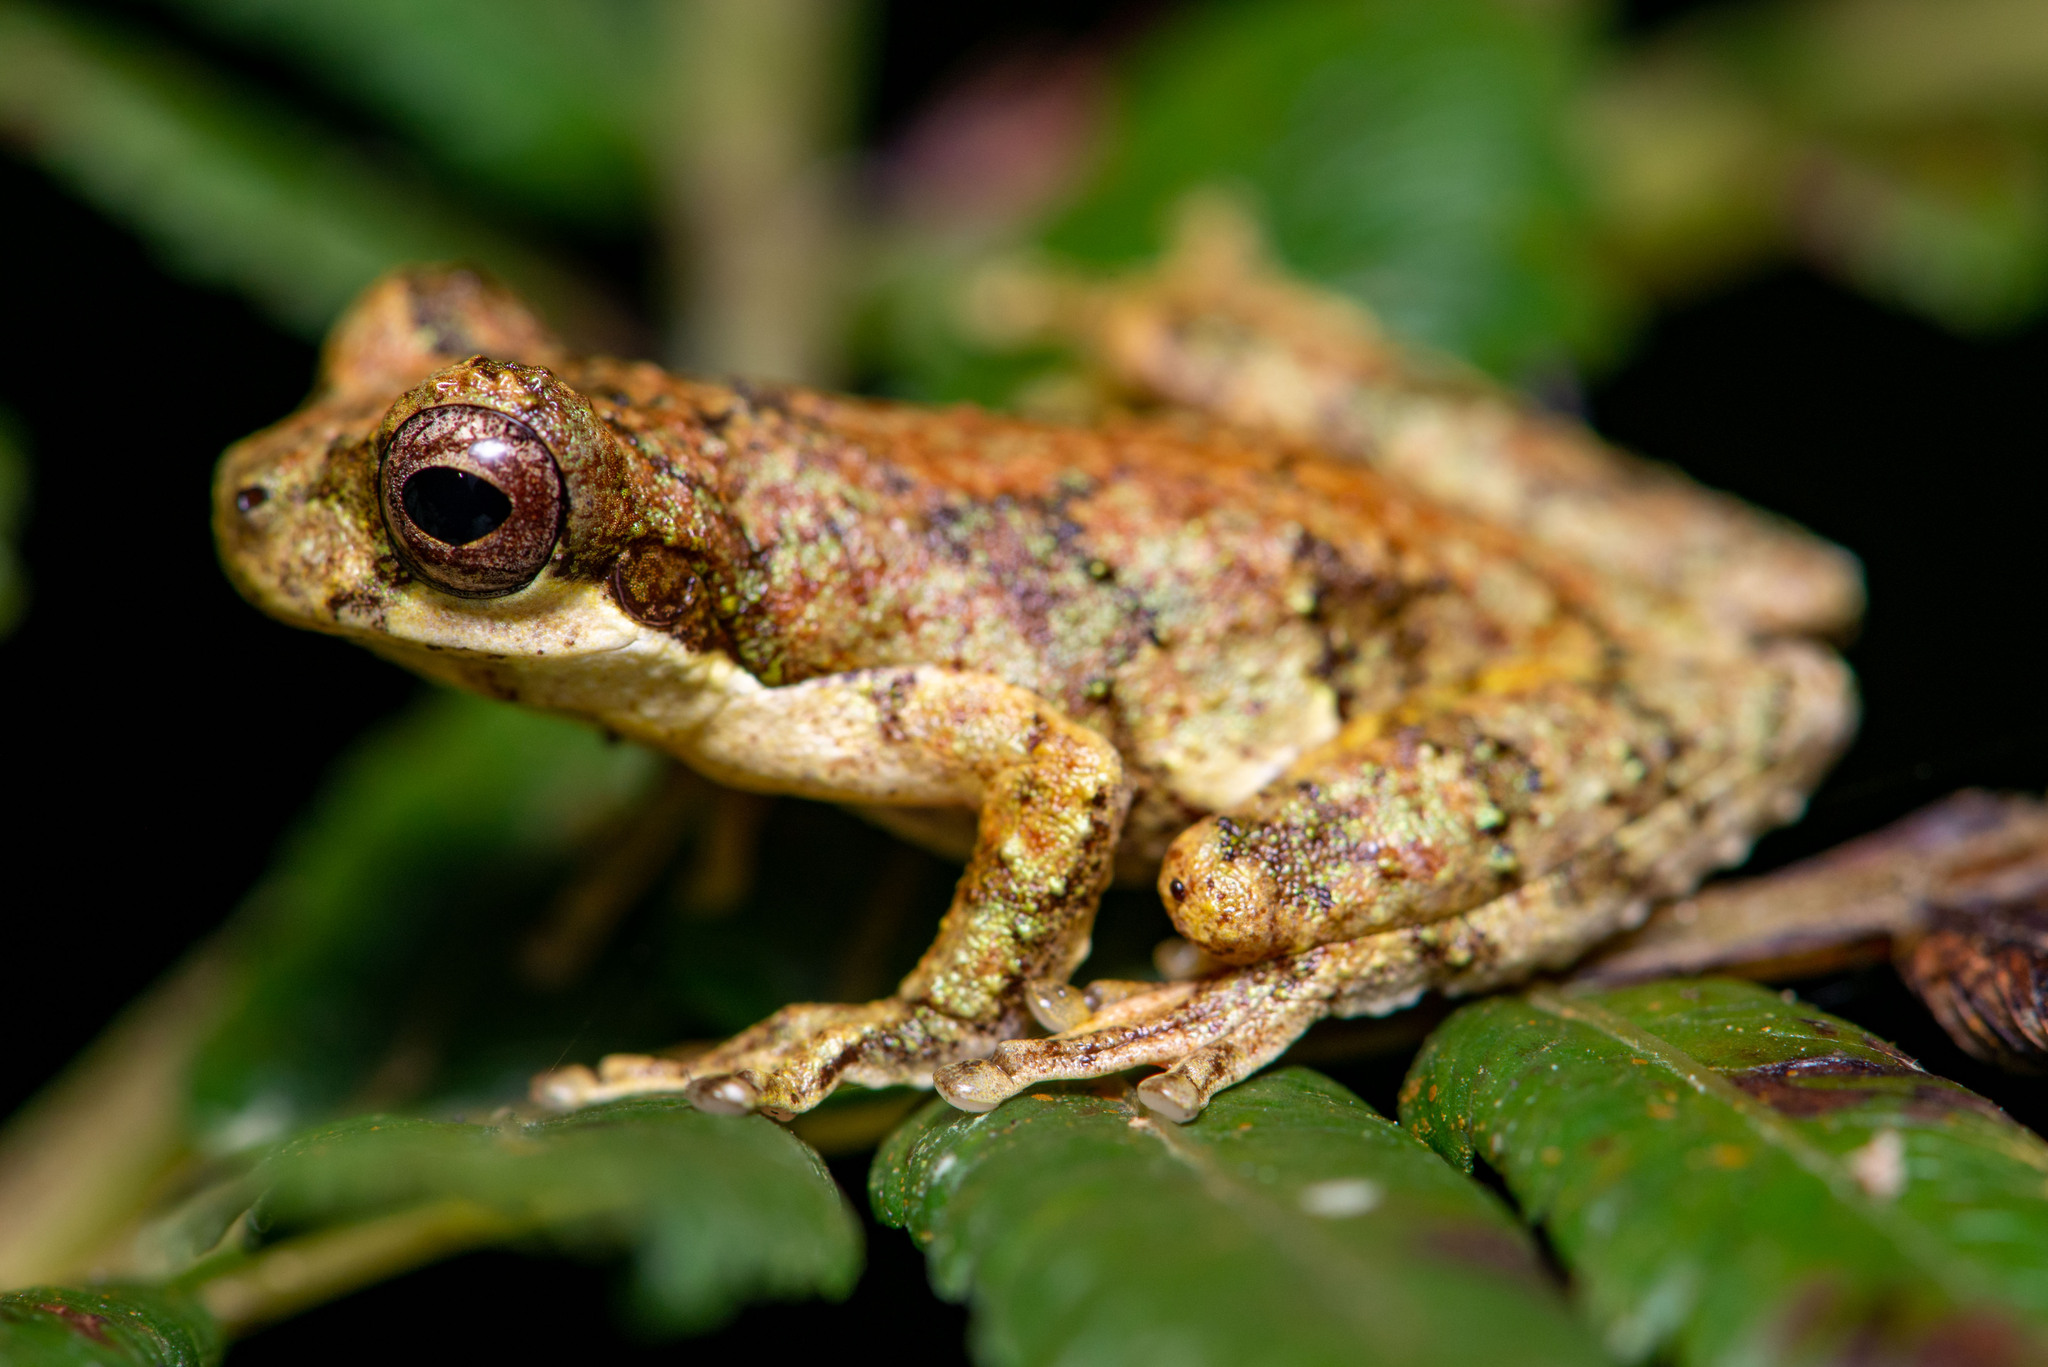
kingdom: Animalia
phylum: Chordata
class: Amphibia
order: Anura
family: Hylidae
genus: Dendropsophus
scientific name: Dendropsophus microps
